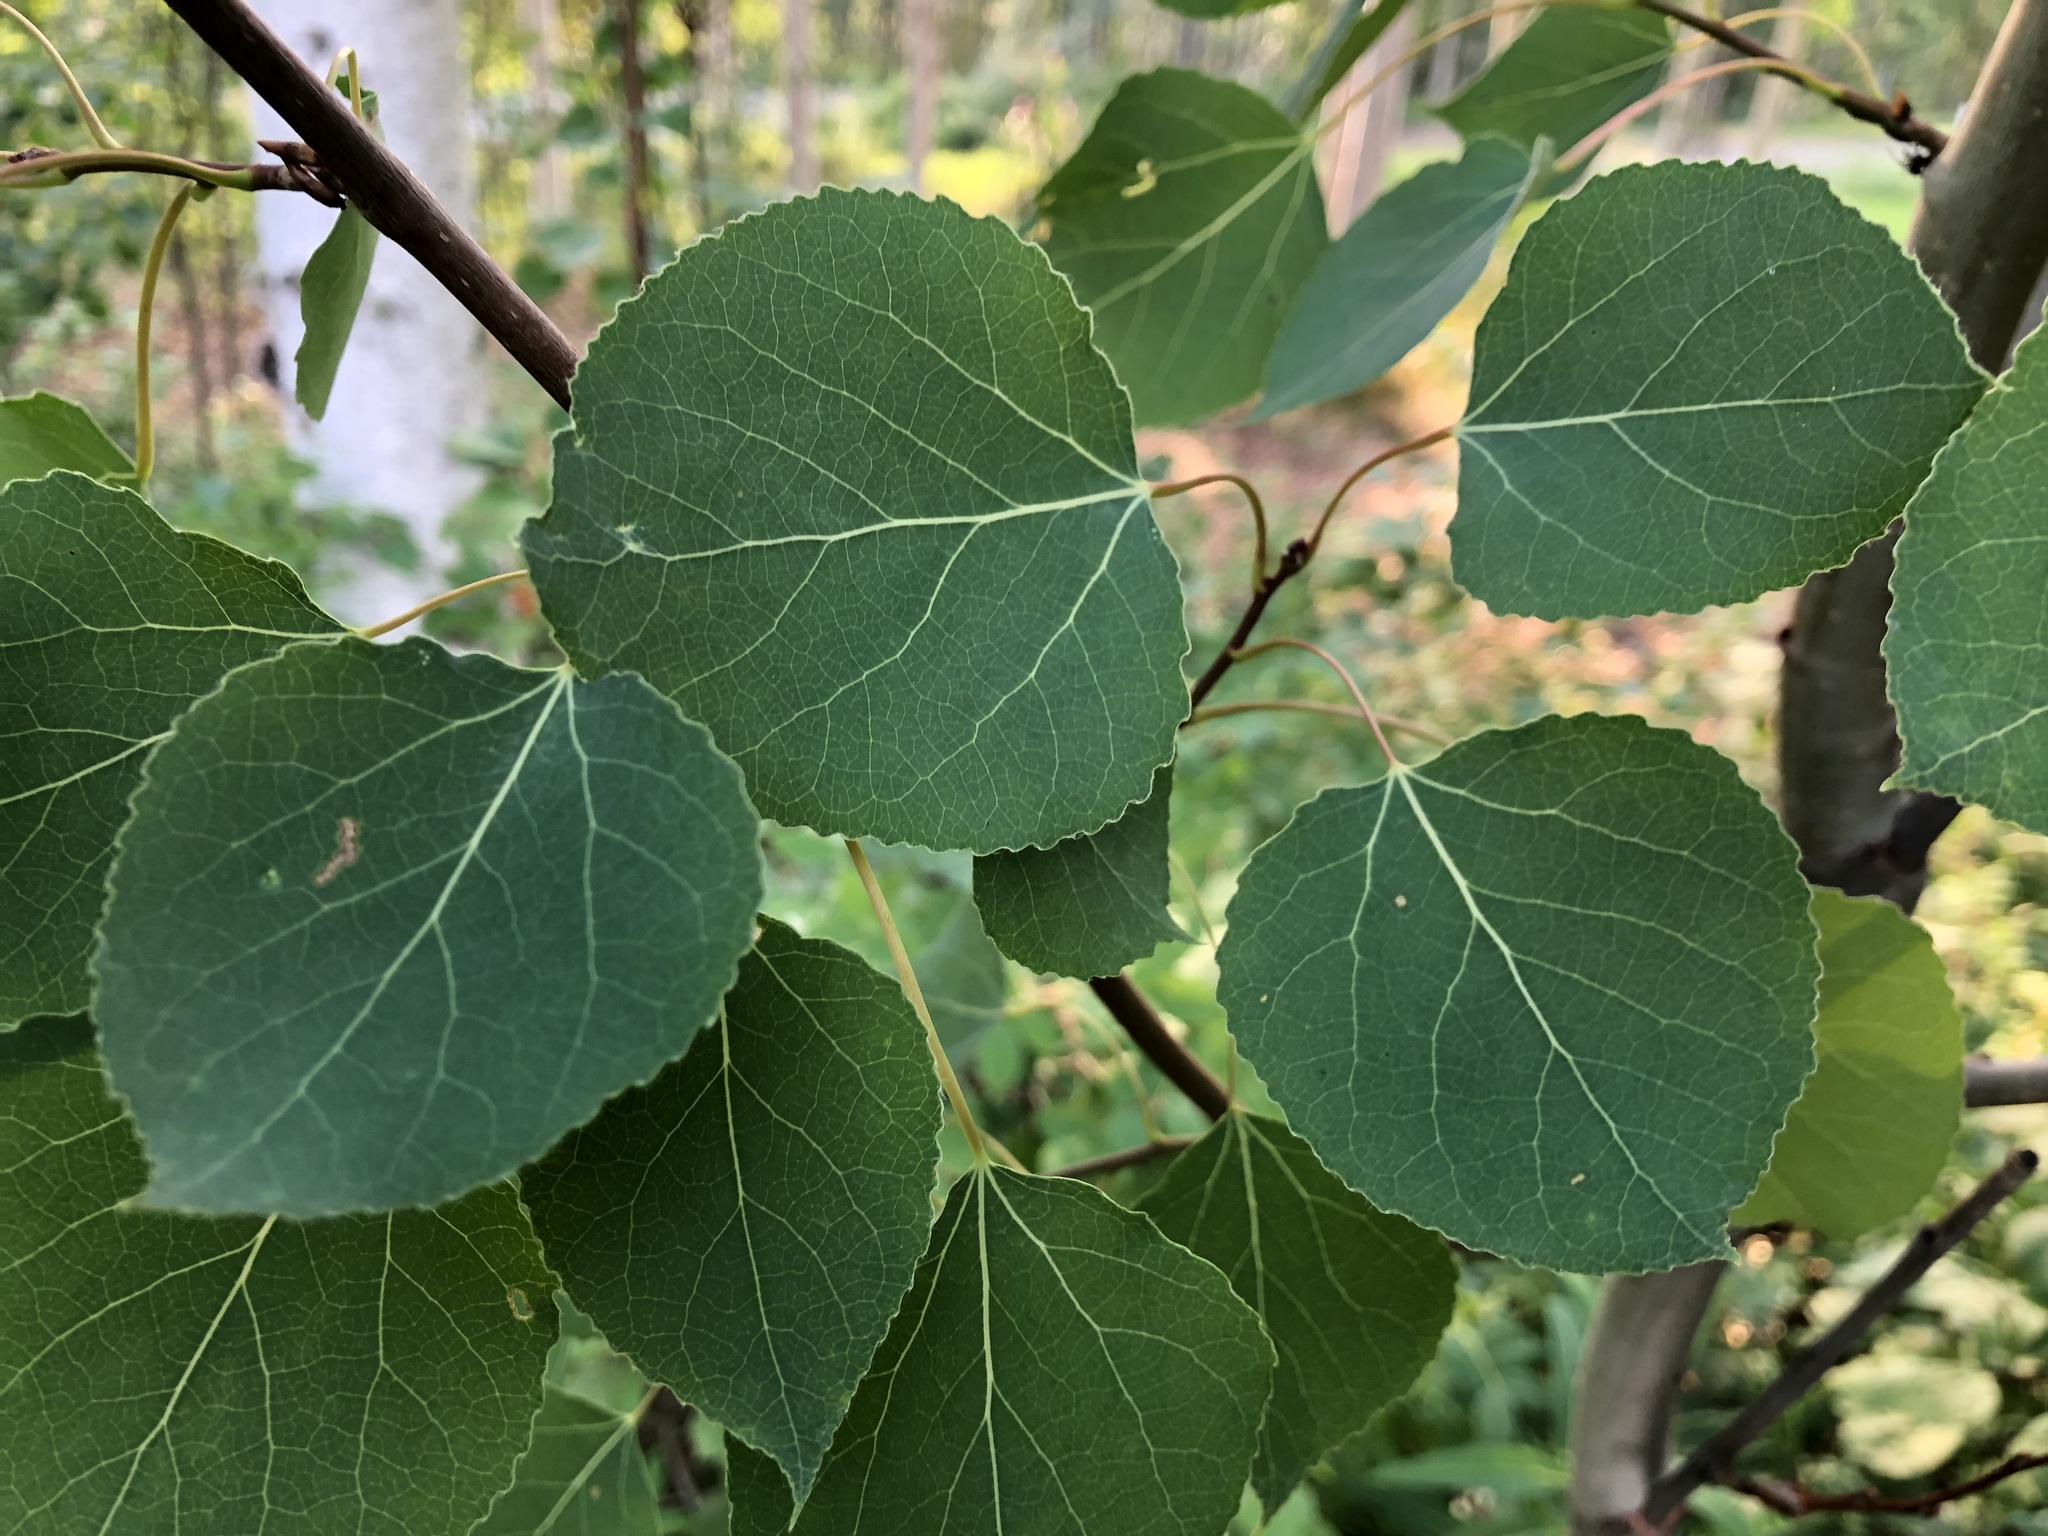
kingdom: Plantae
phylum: Tracheophyta
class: Magnoliopsida
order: Malpighiales
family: Salicaceae
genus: Populus
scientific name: Populus tremuloides
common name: Quaking aspen
